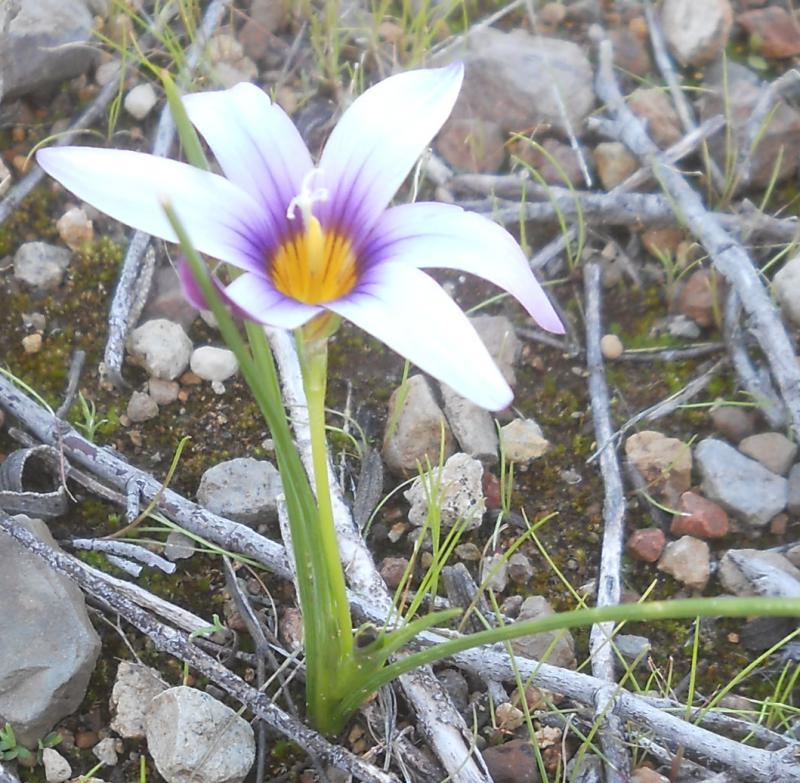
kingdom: Plantae
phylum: Tracheophyta
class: Liliopsida
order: Asparagales
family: Iridaceae
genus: Romulea
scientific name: Romulea columnae
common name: Sand-crocus
